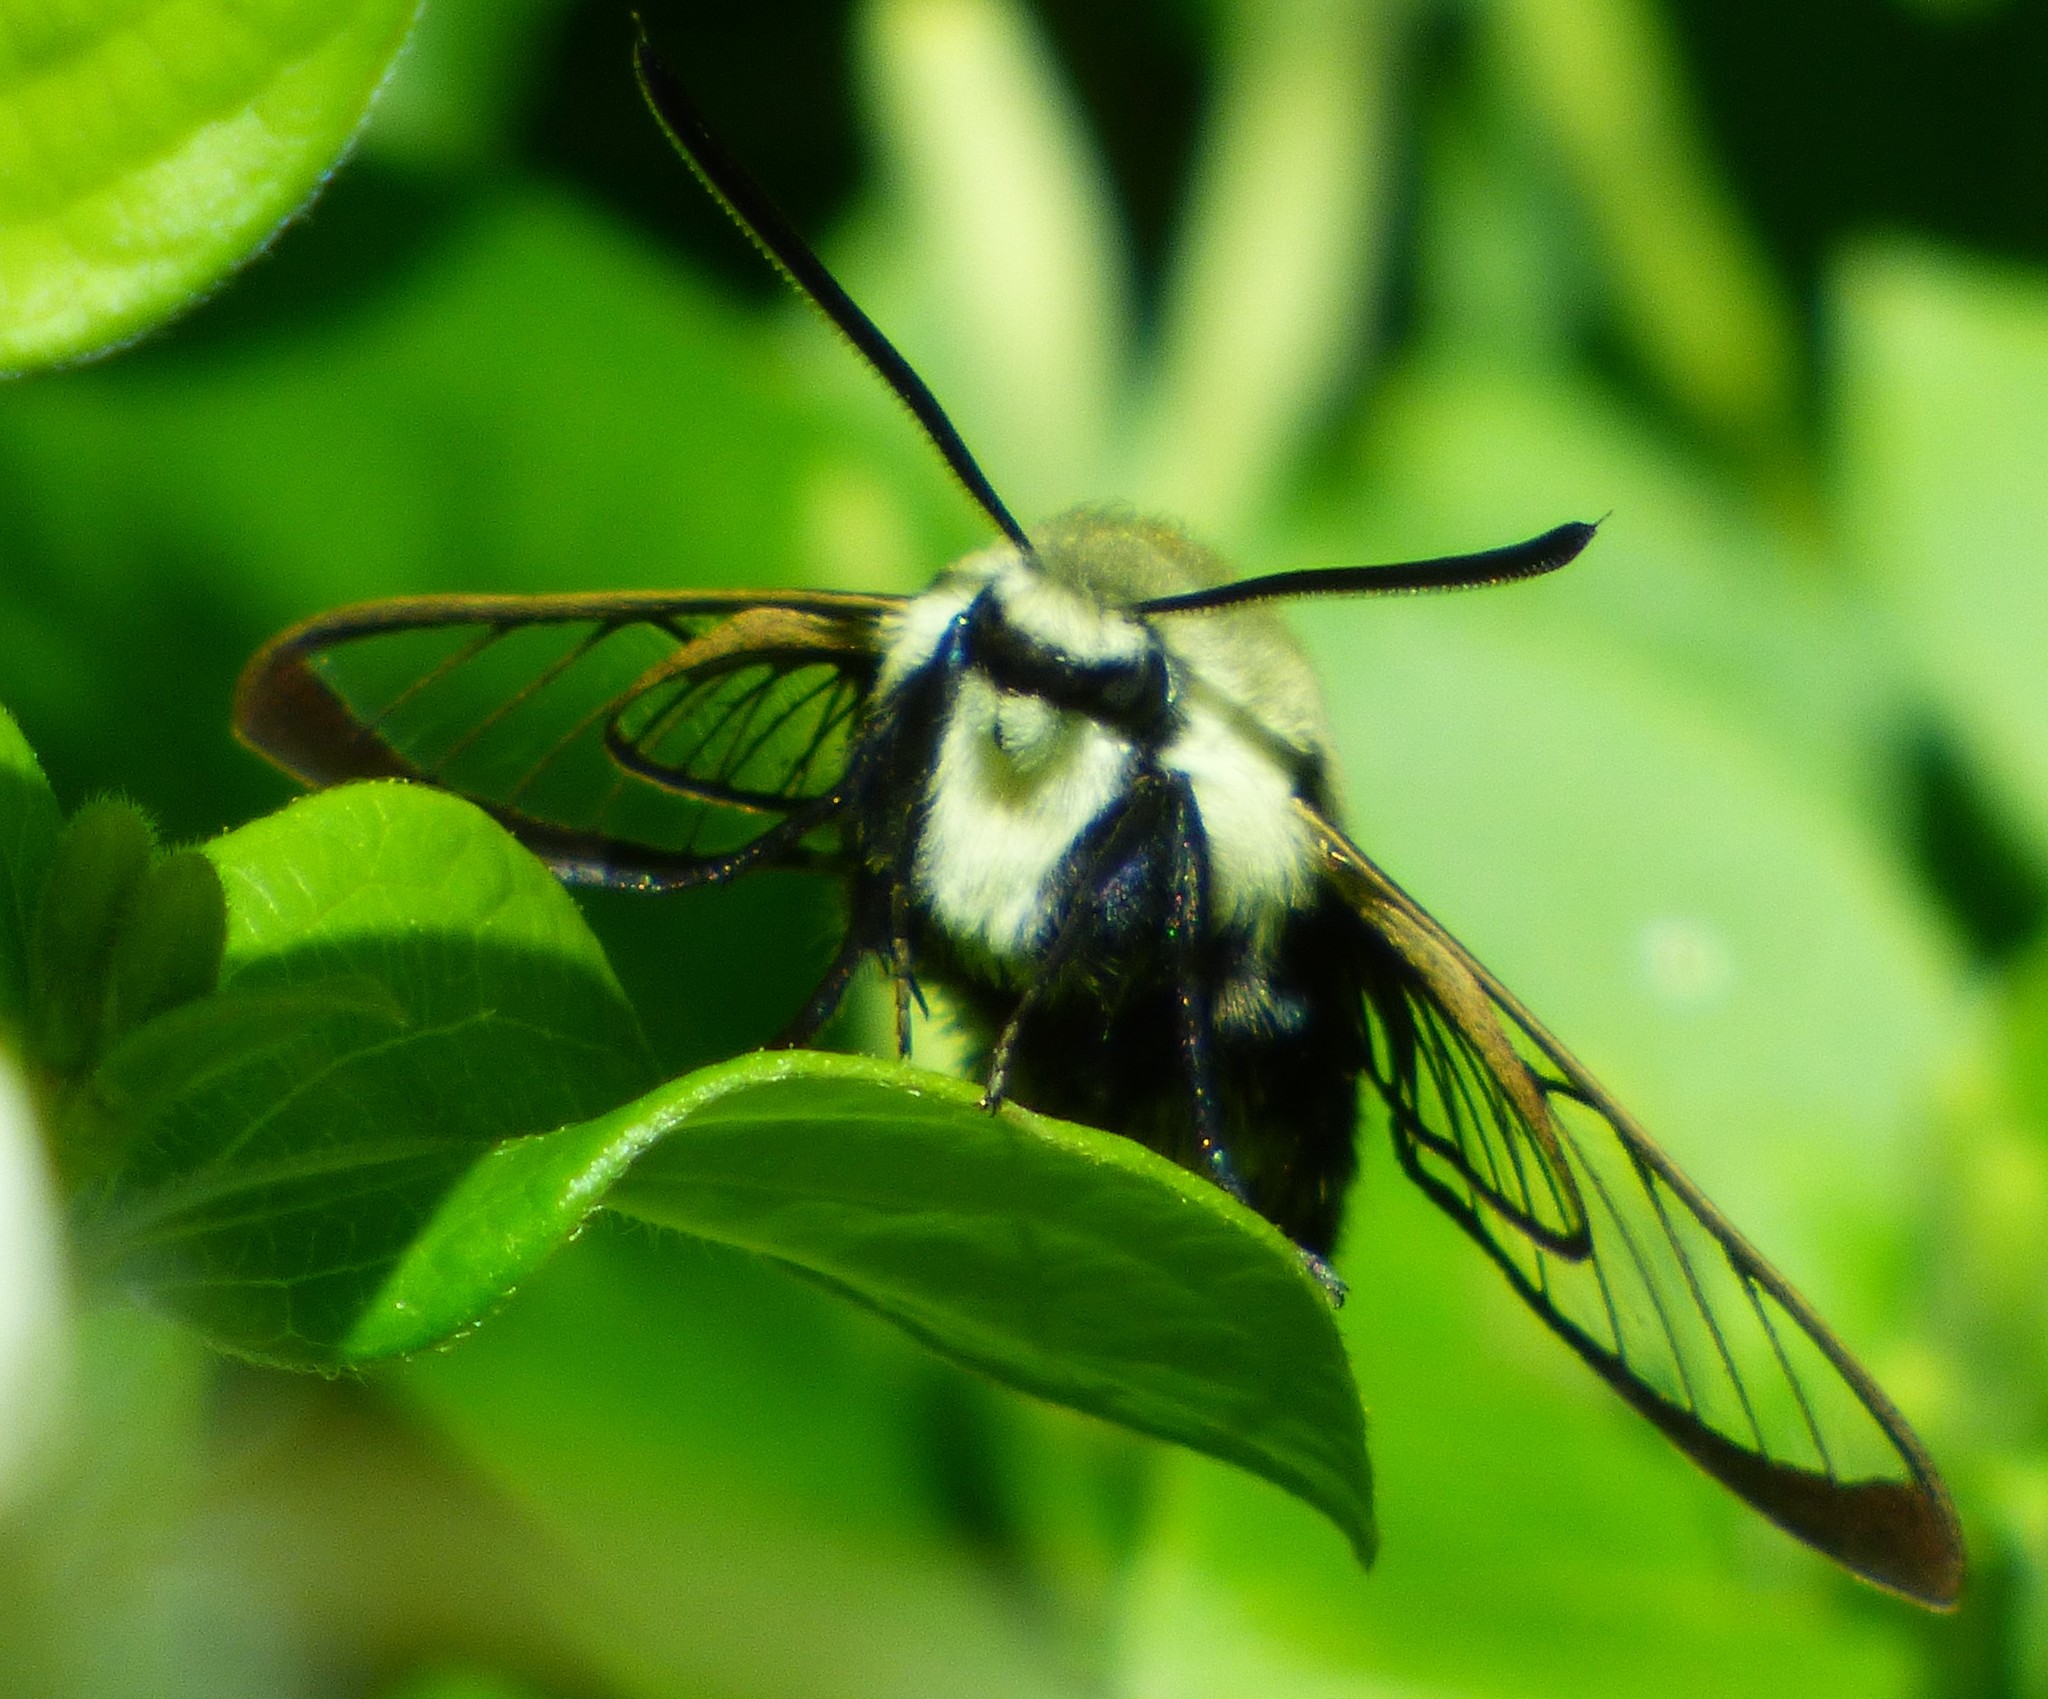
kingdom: Animalia
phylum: Arthropoda
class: Insecta
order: Lepidoptera
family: Sphingidae
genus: Hemaris
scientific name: Hemaris diffinis
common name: Bumblebee moth
